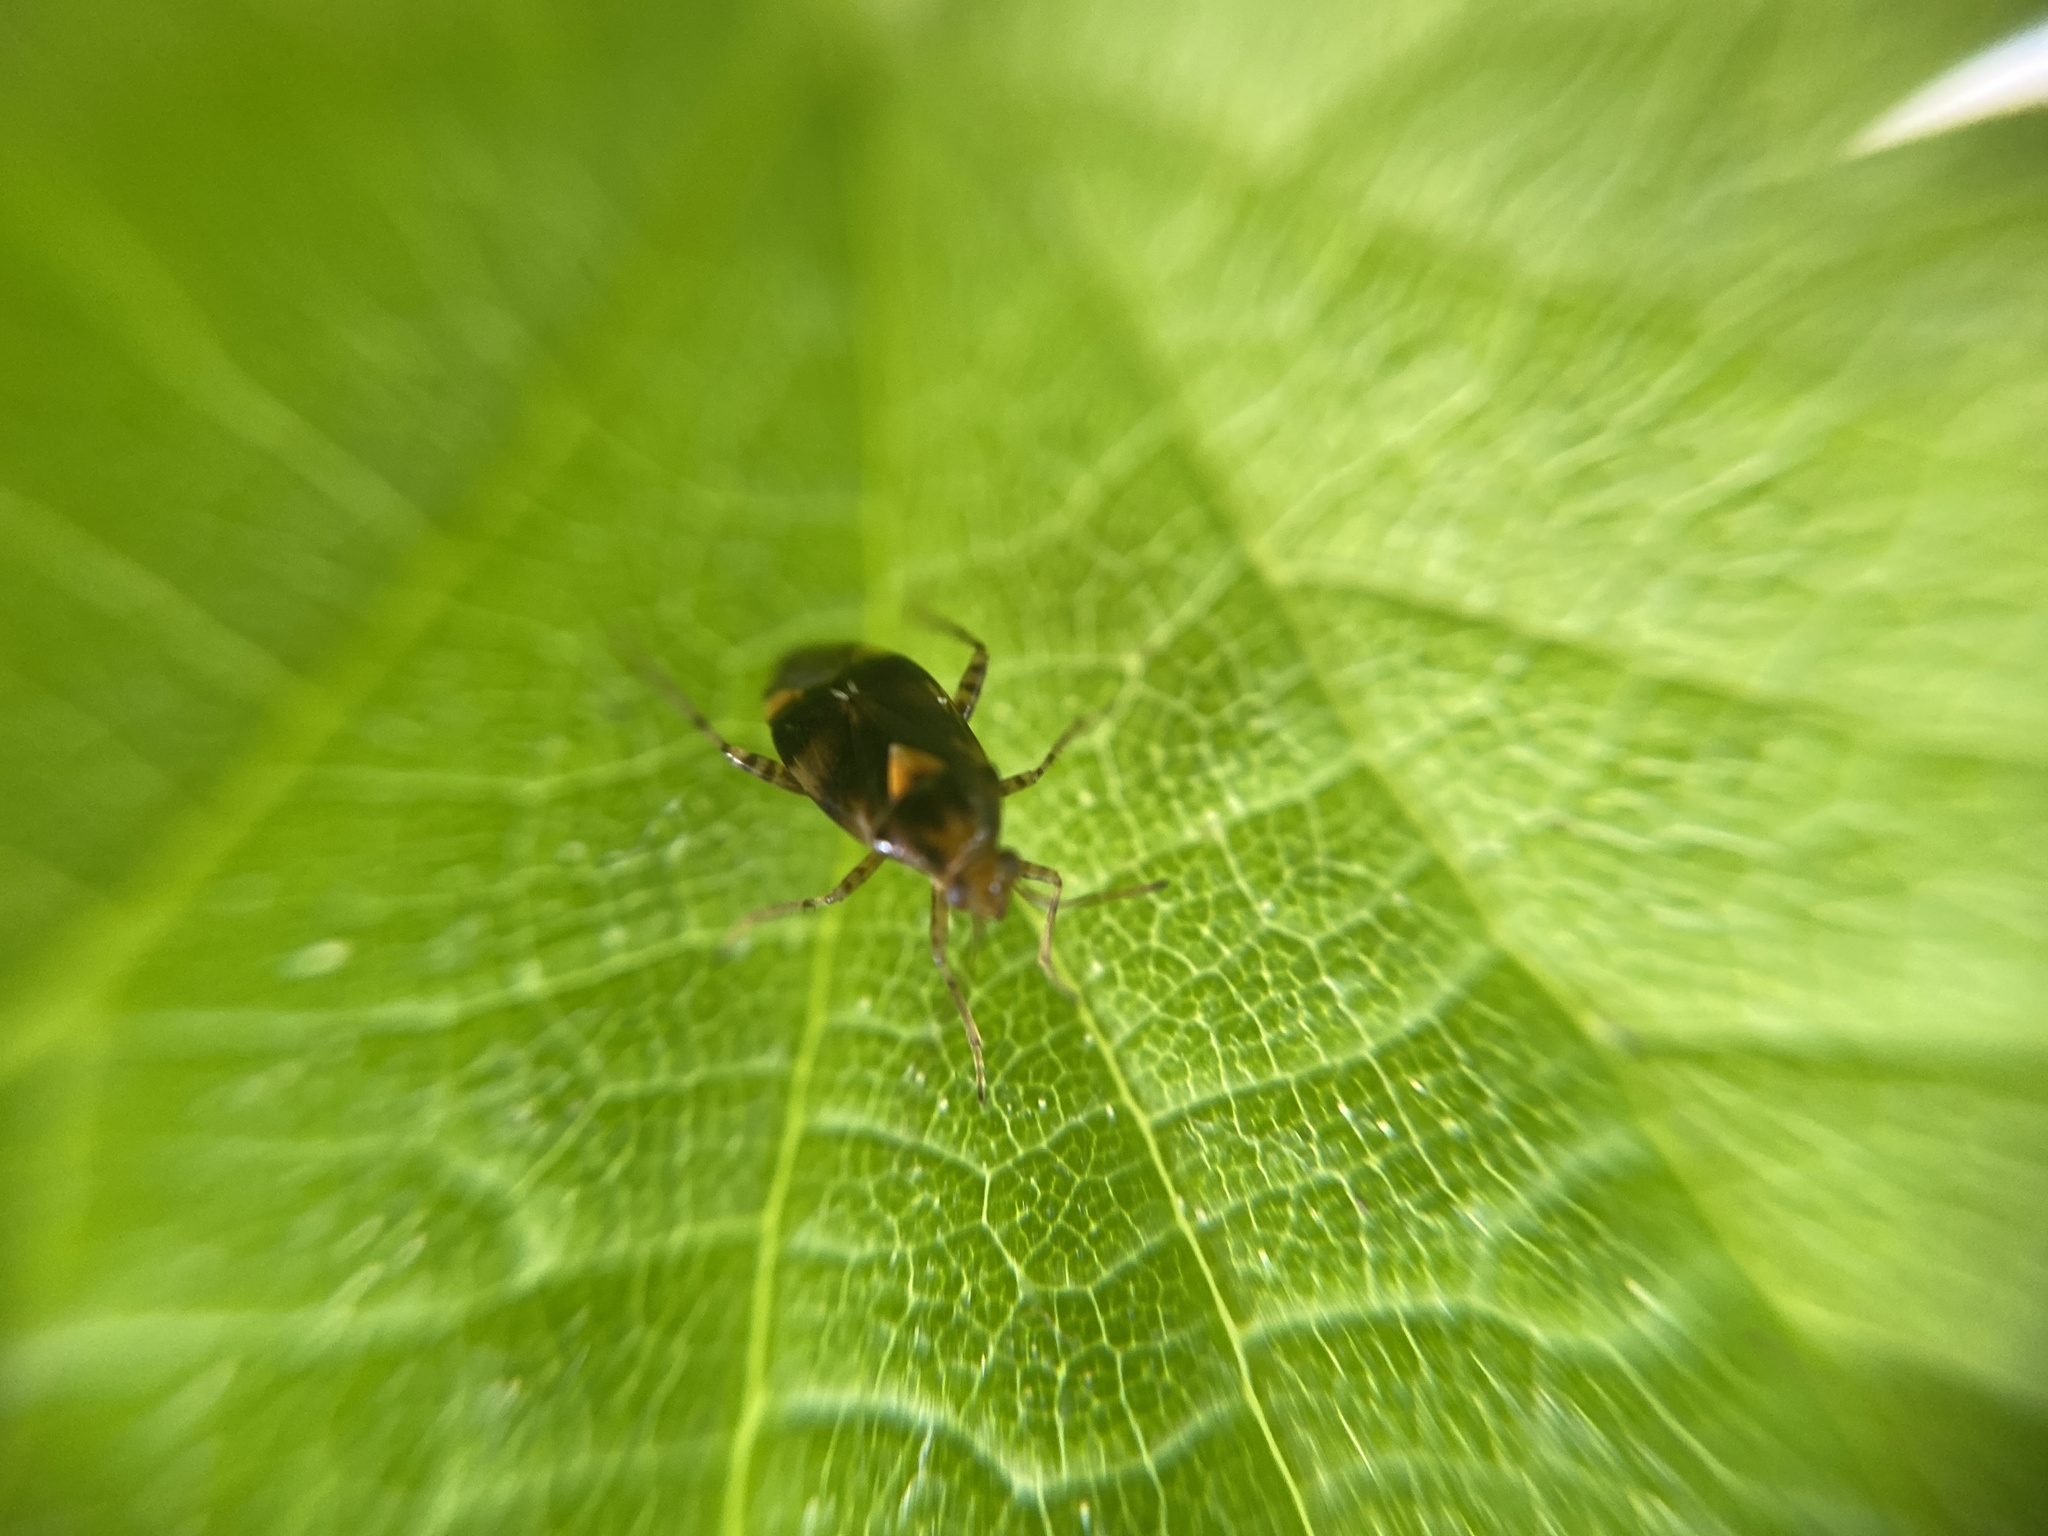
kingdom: Animalia
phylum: Arthropoda
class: Insecta
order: Hemiptera
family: Miridae
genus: Liocoris
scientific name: Liocoris tripustulatus
